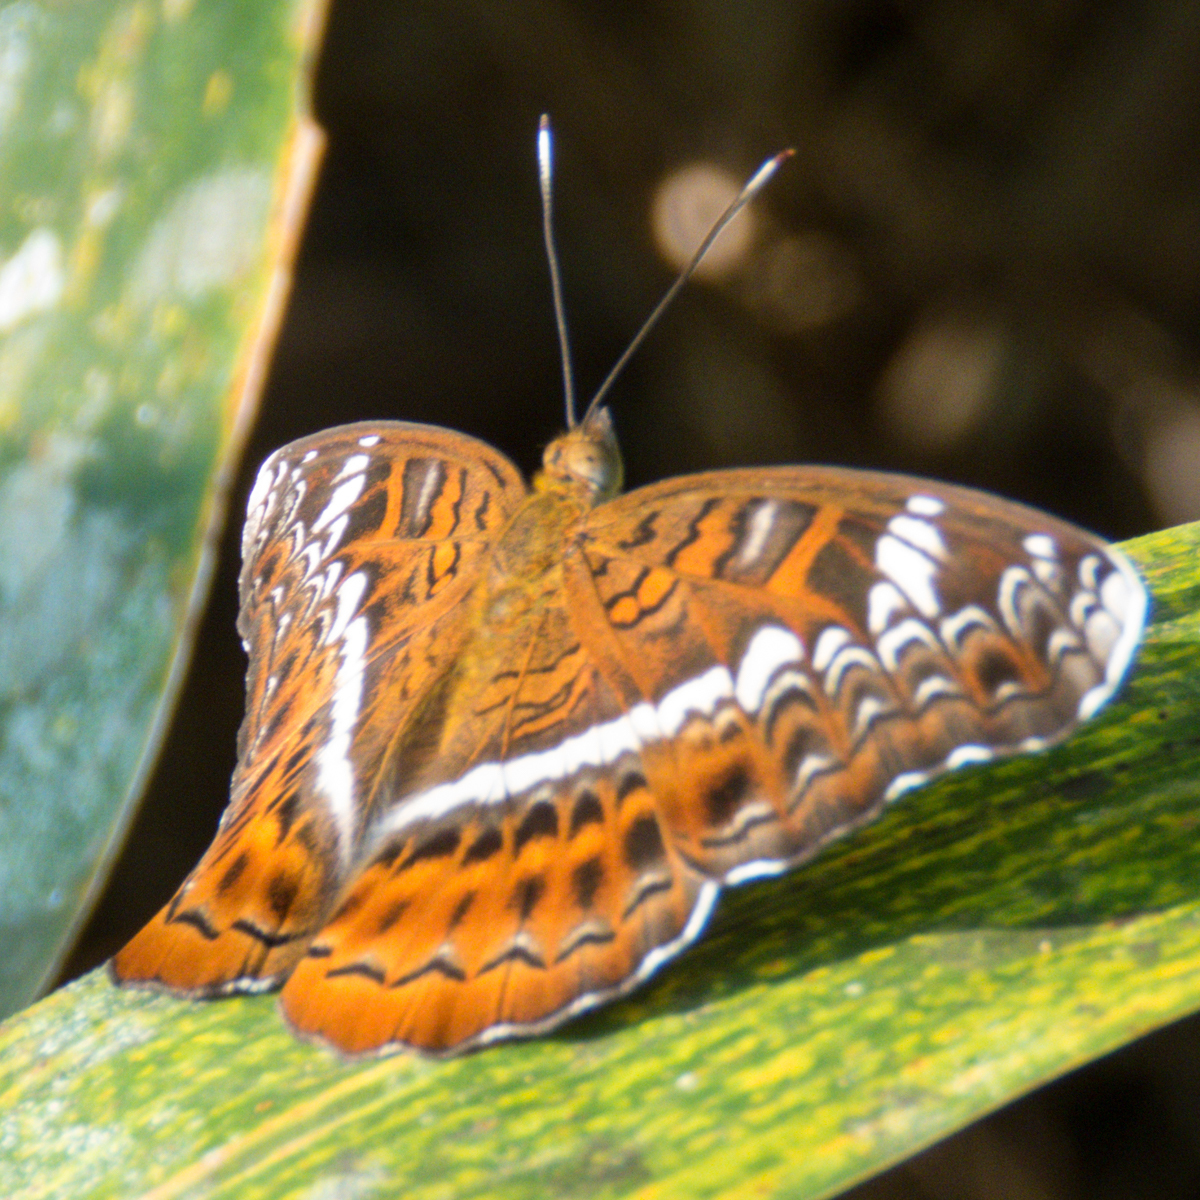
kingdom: Animalia
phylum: Arthropoda
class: Insecta
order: Lepidoptera
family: Nymphalidae
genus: Lebadea
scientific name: Lebadea martha
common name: Knight
